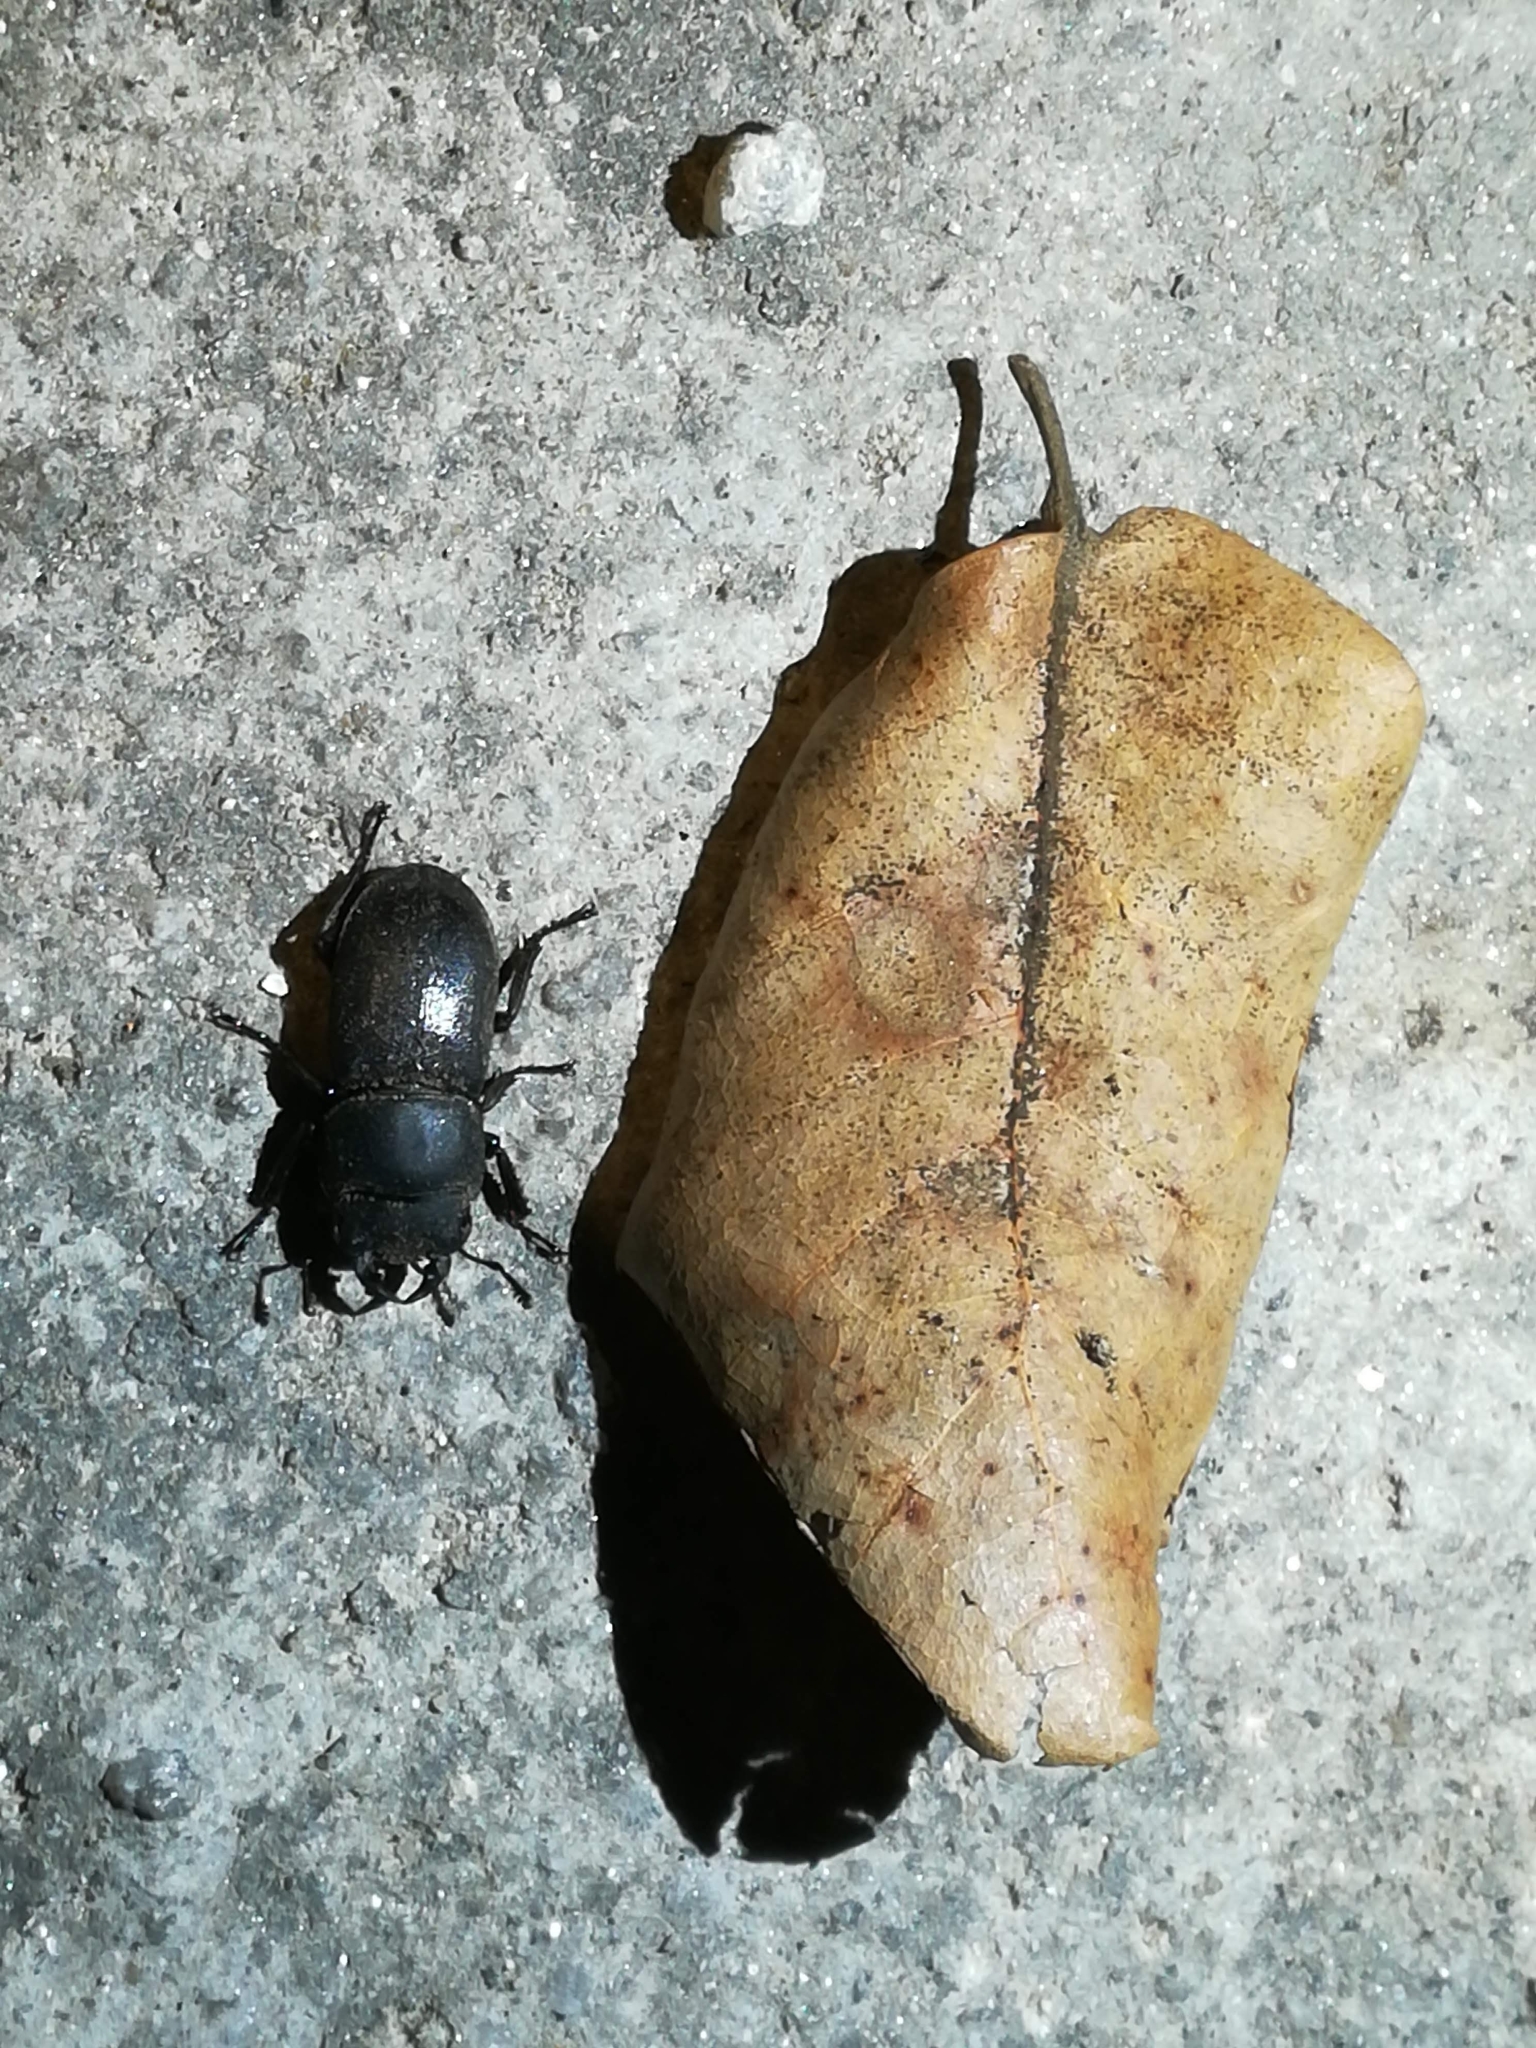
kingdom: Animalia
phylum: Arthropoda
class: Insecta
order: Coleoptera
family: Lucanidae
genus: Dorcus
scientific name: Dorcus parallelipipedus
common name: Lesser stag beetle
